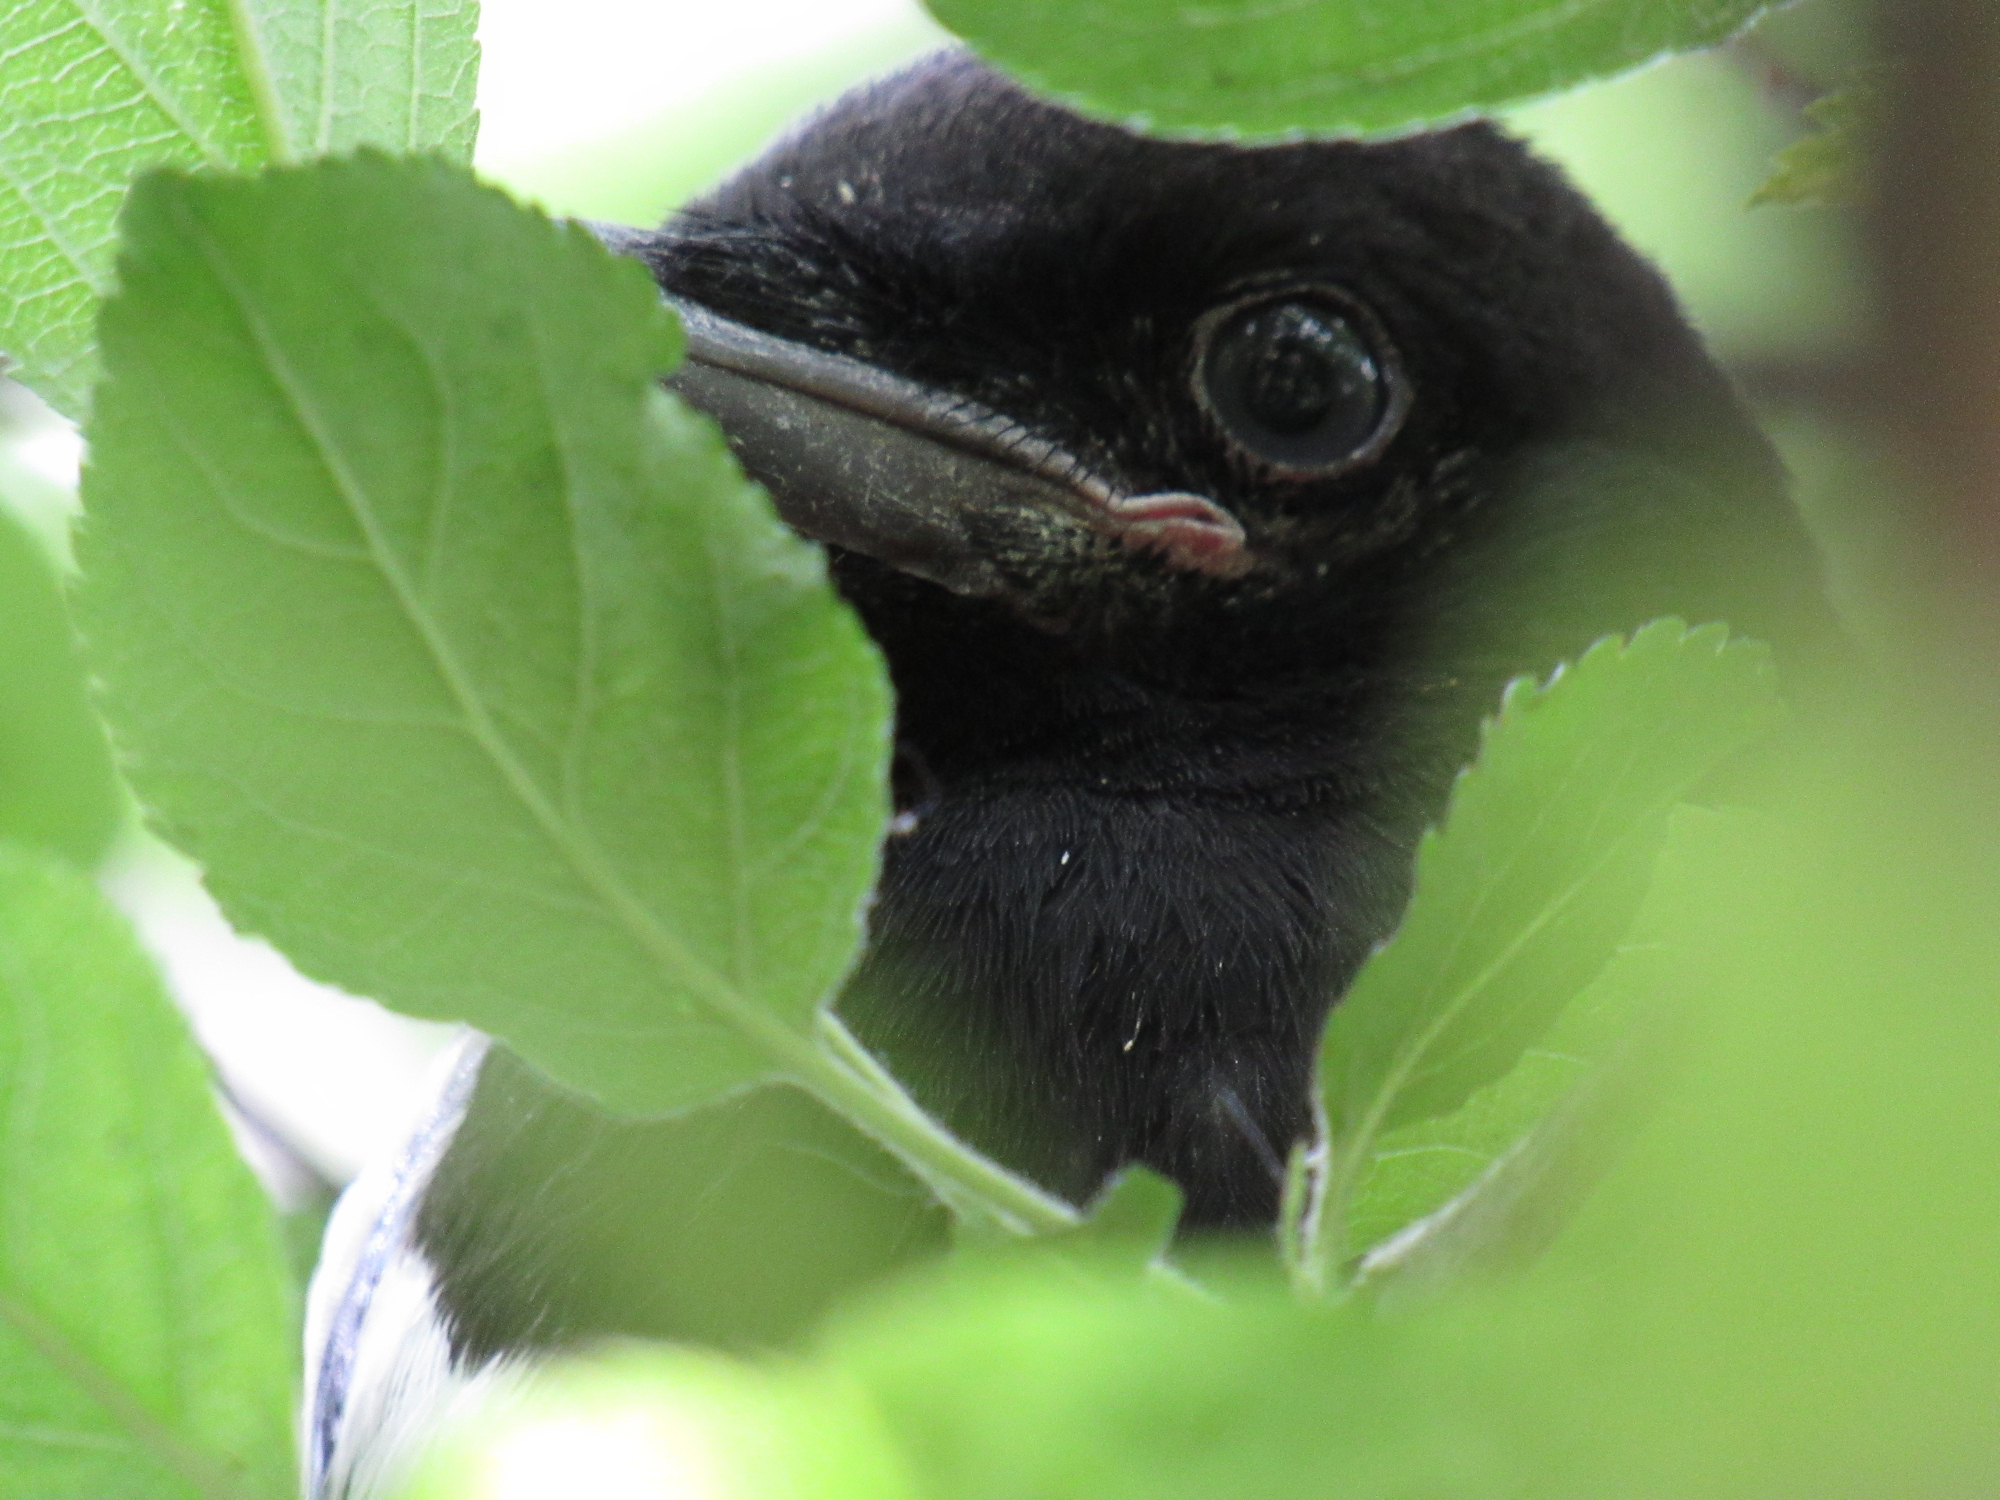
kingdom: Animalia
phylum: Chordata
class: Aves
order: Passeriformes
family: Corvidae
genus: Pica
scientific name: Pica hudsonia
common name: Black-billed magpie
